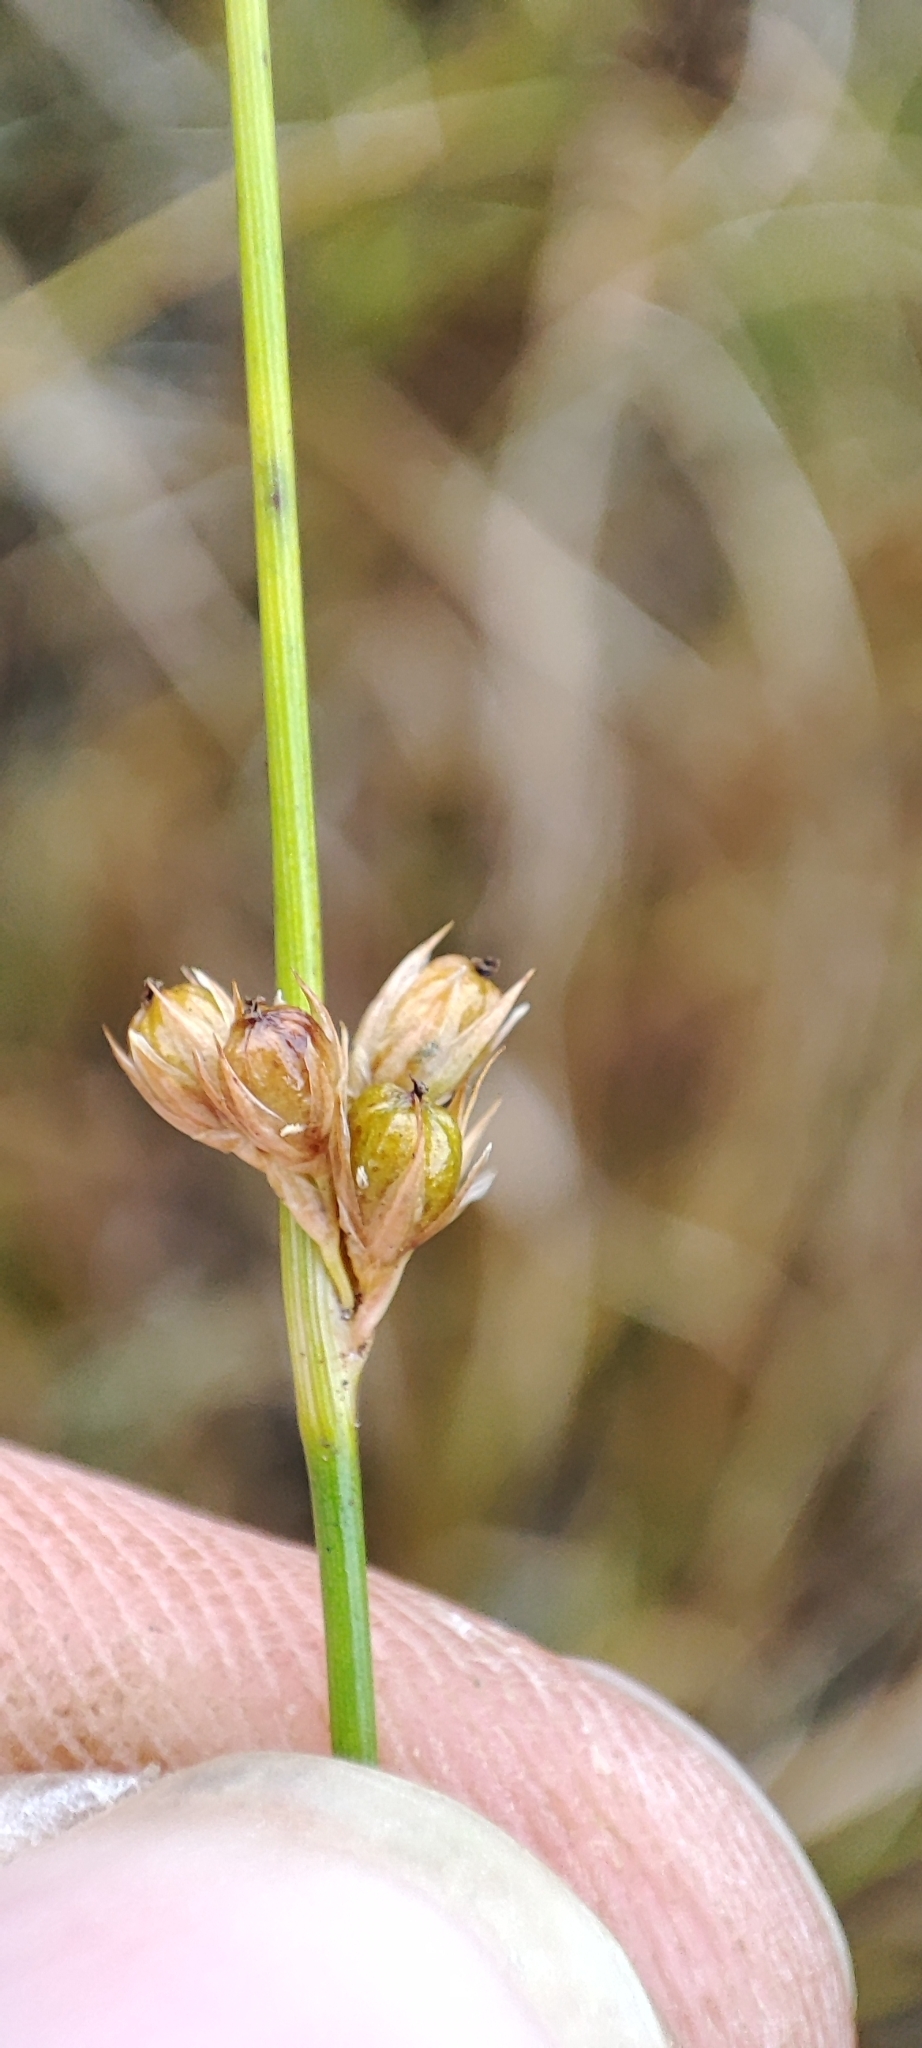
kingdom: Plantae
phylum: Tracheophyta
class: Liliopsida
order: Poales
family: Juncaceae
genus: Juncus
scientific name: Juncus filiformis
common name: Thread rush
